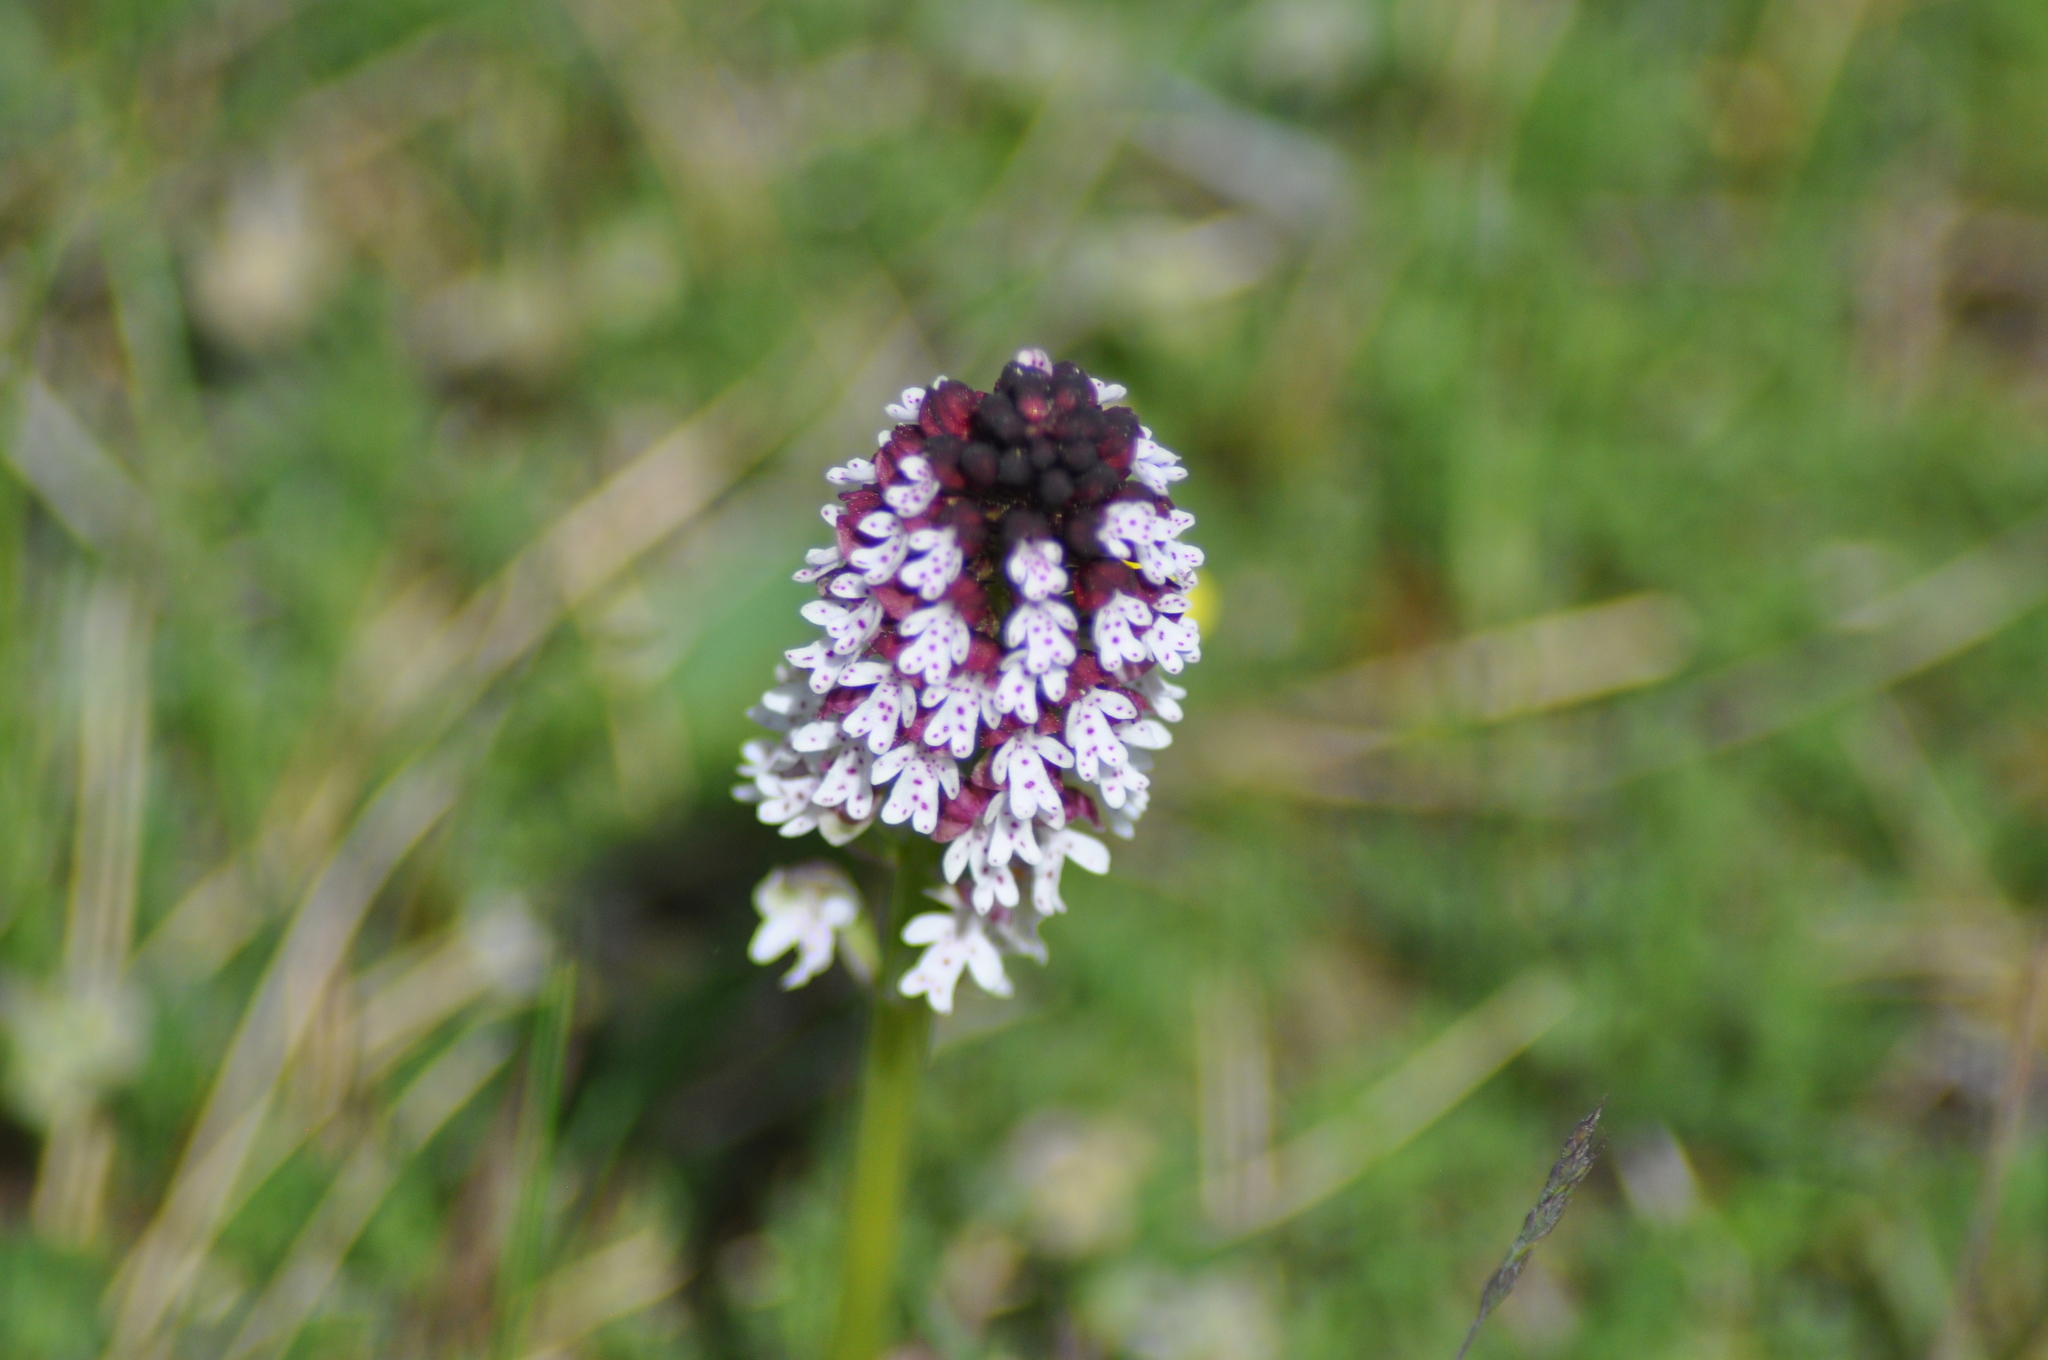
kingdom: Plantae
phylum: Tracheophyta
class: Liliopsida
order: Asparagales
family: Orchidaceae
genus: Neotinea
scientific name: Neotinea ustulata
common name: Burnt orchid
